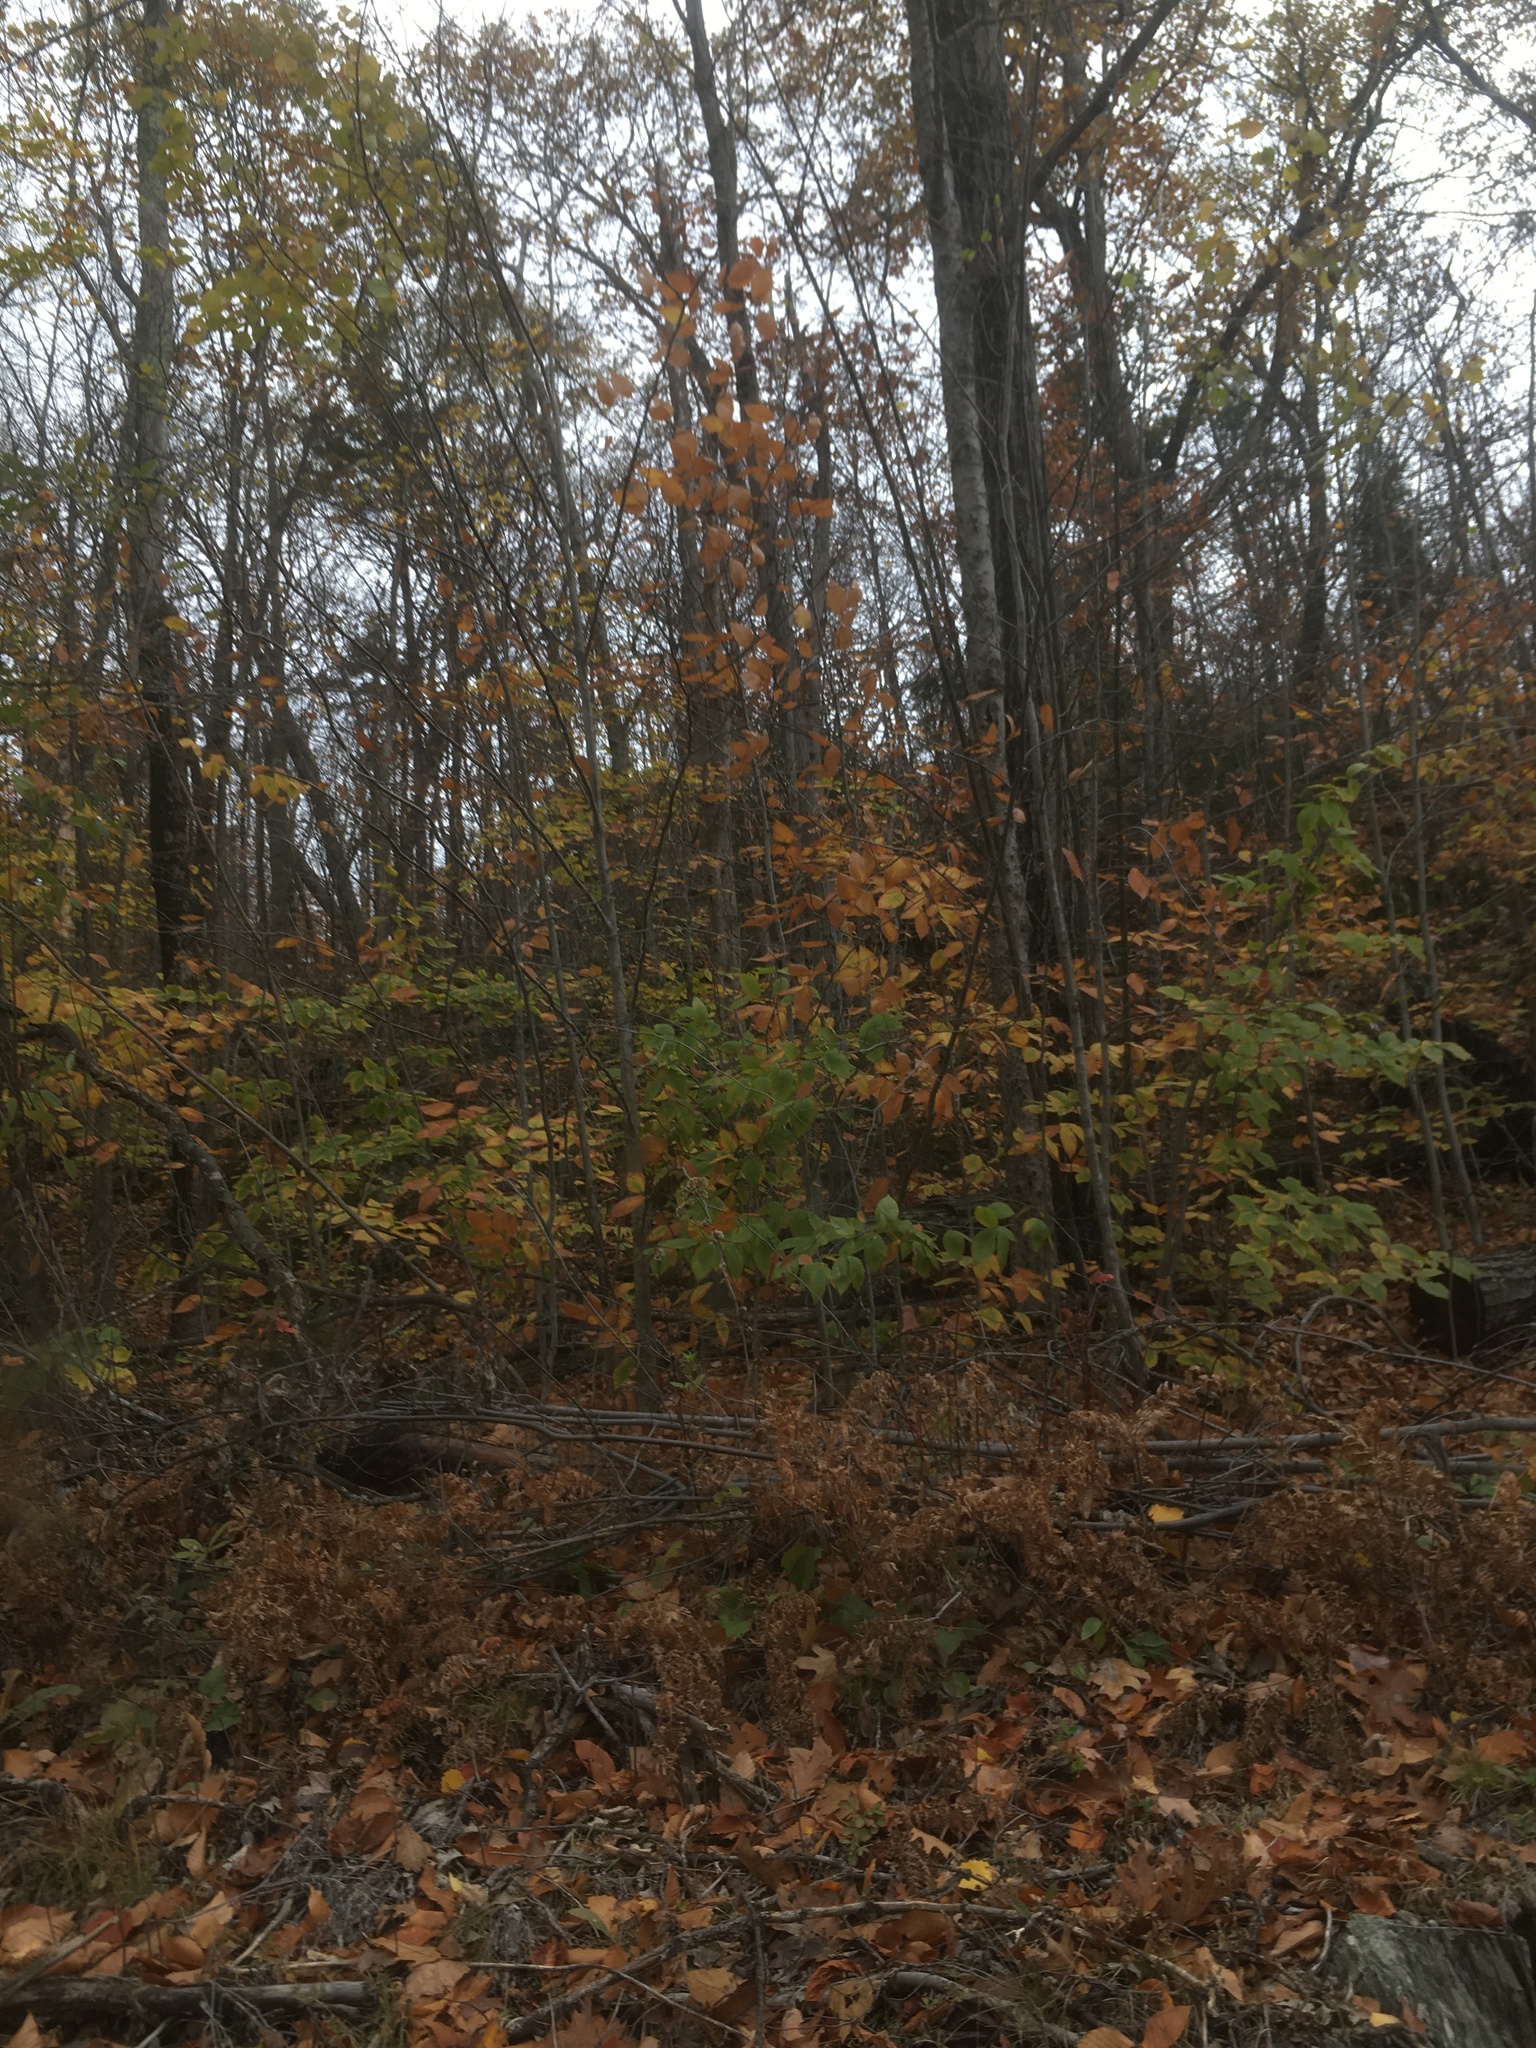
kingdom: Plantae
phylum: Tracheophyta
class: Magnoliopsida
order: Fagales
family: Fagaceae
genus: Fagus
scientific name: Fagus grandifolia
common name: American beech
